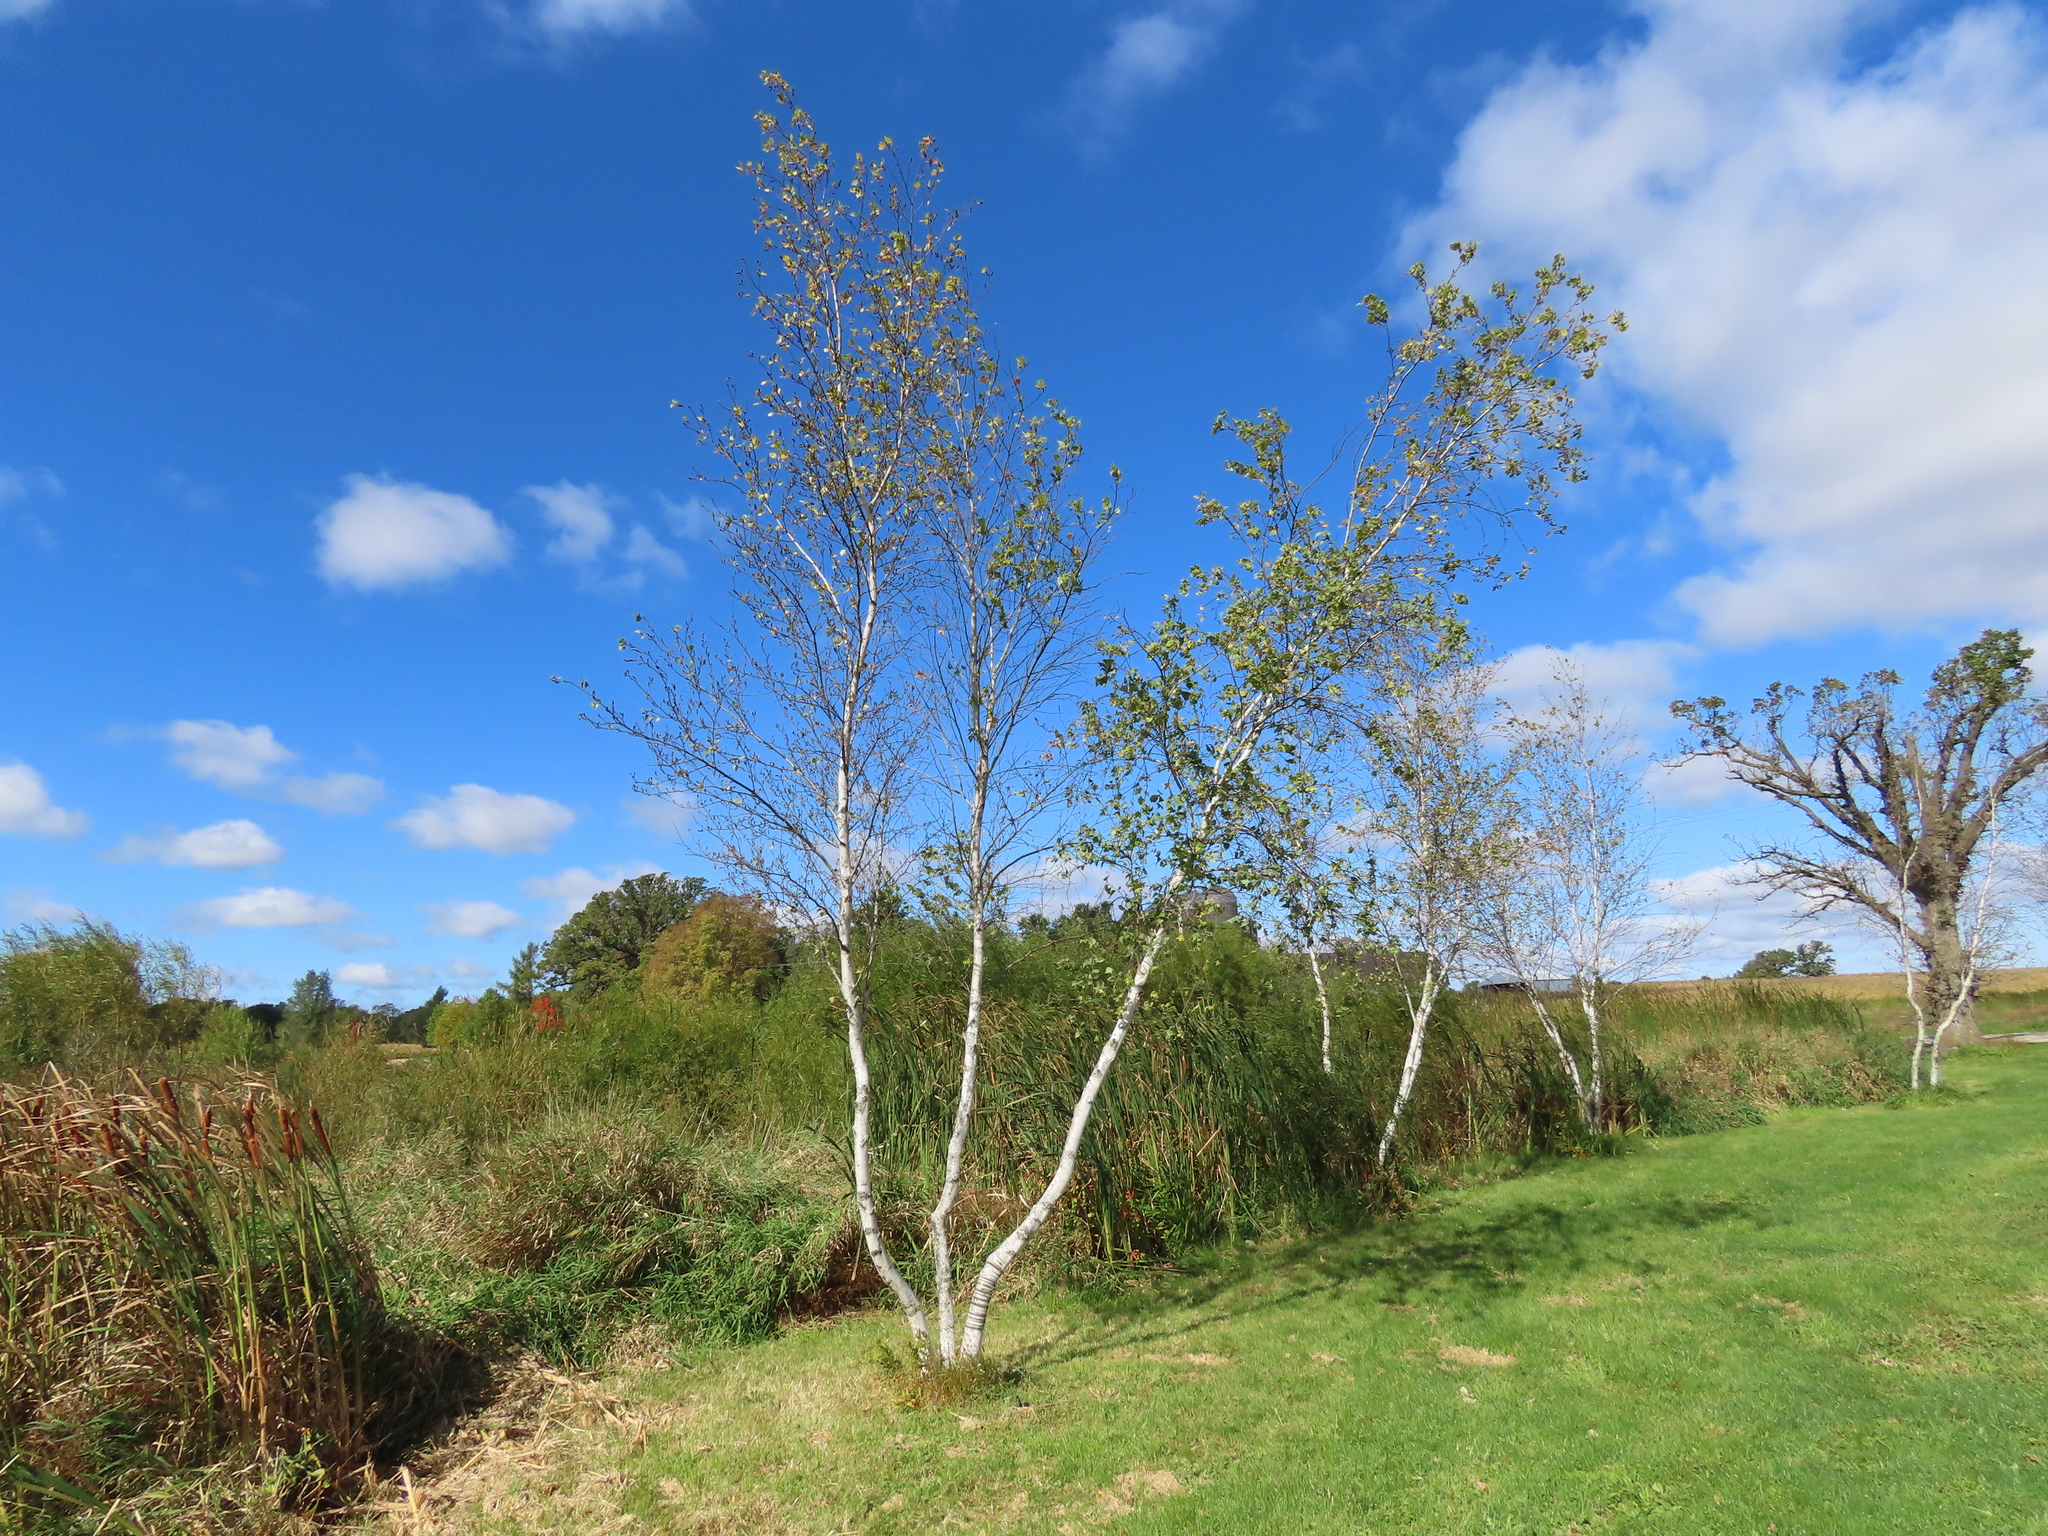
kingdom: Plantae
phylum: Tracheophyta
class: Magnoliopsida
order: Fagales
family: Betulaceae
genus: Betula
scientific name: Betula papyrifera
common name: Paper birch
